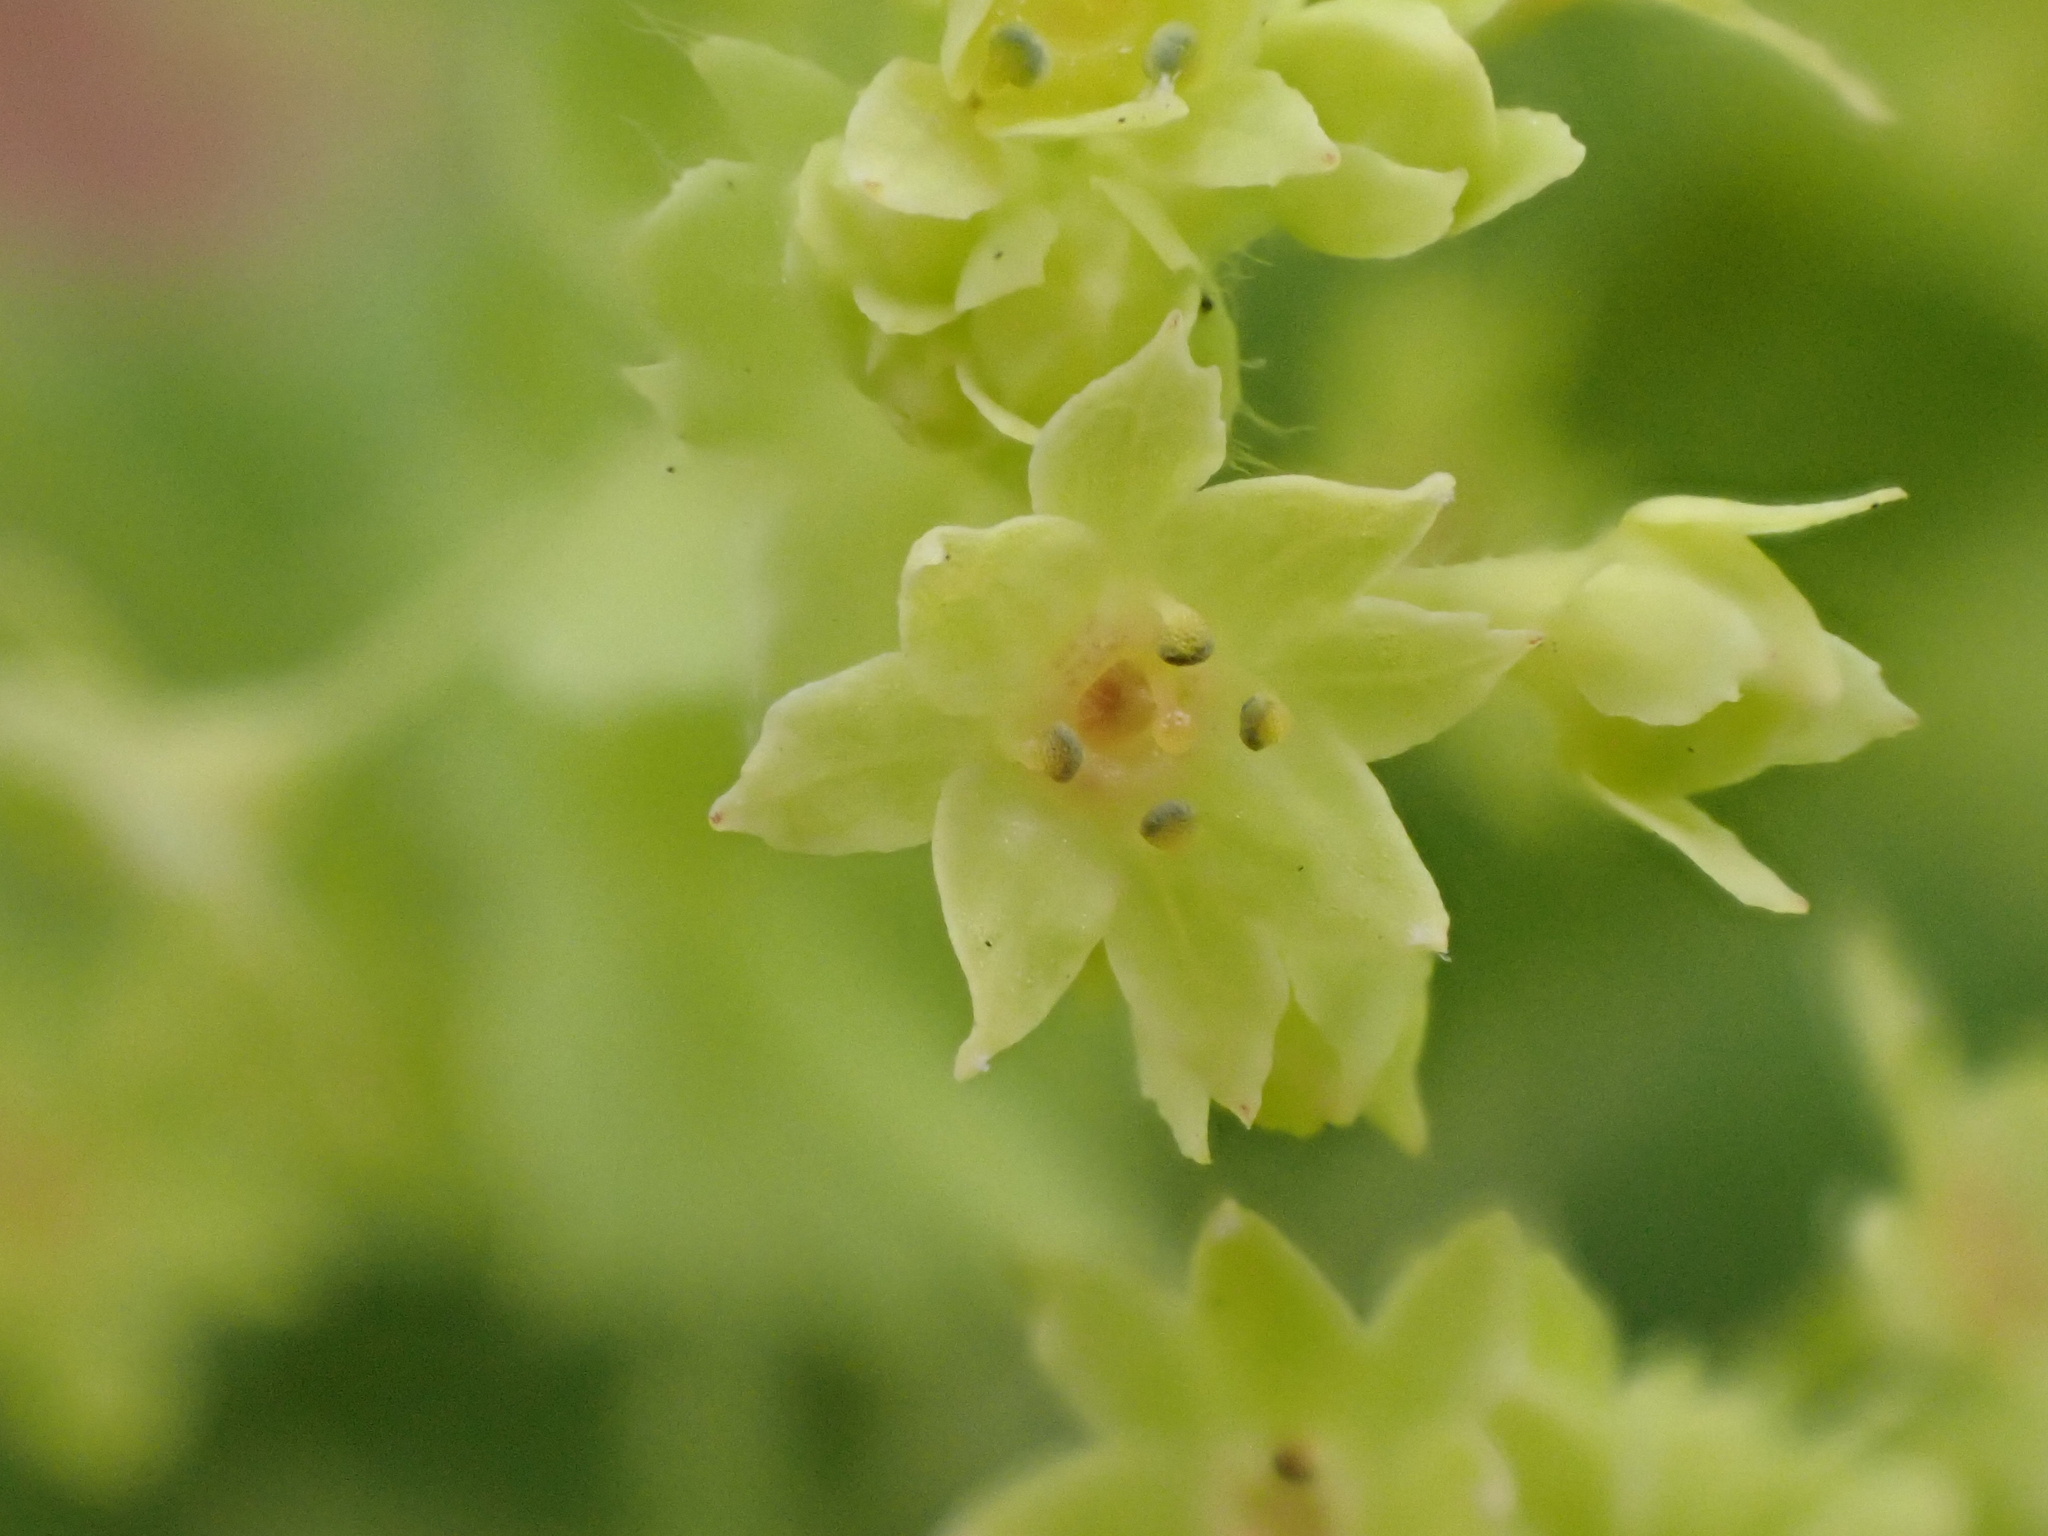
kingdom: Plantae
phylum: Tracheophyta
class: Magnoliopsida
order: Rosales
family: Rosaceae
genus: Alchemilla
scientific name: Alchemilla mollis
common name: Lady's-mantle
